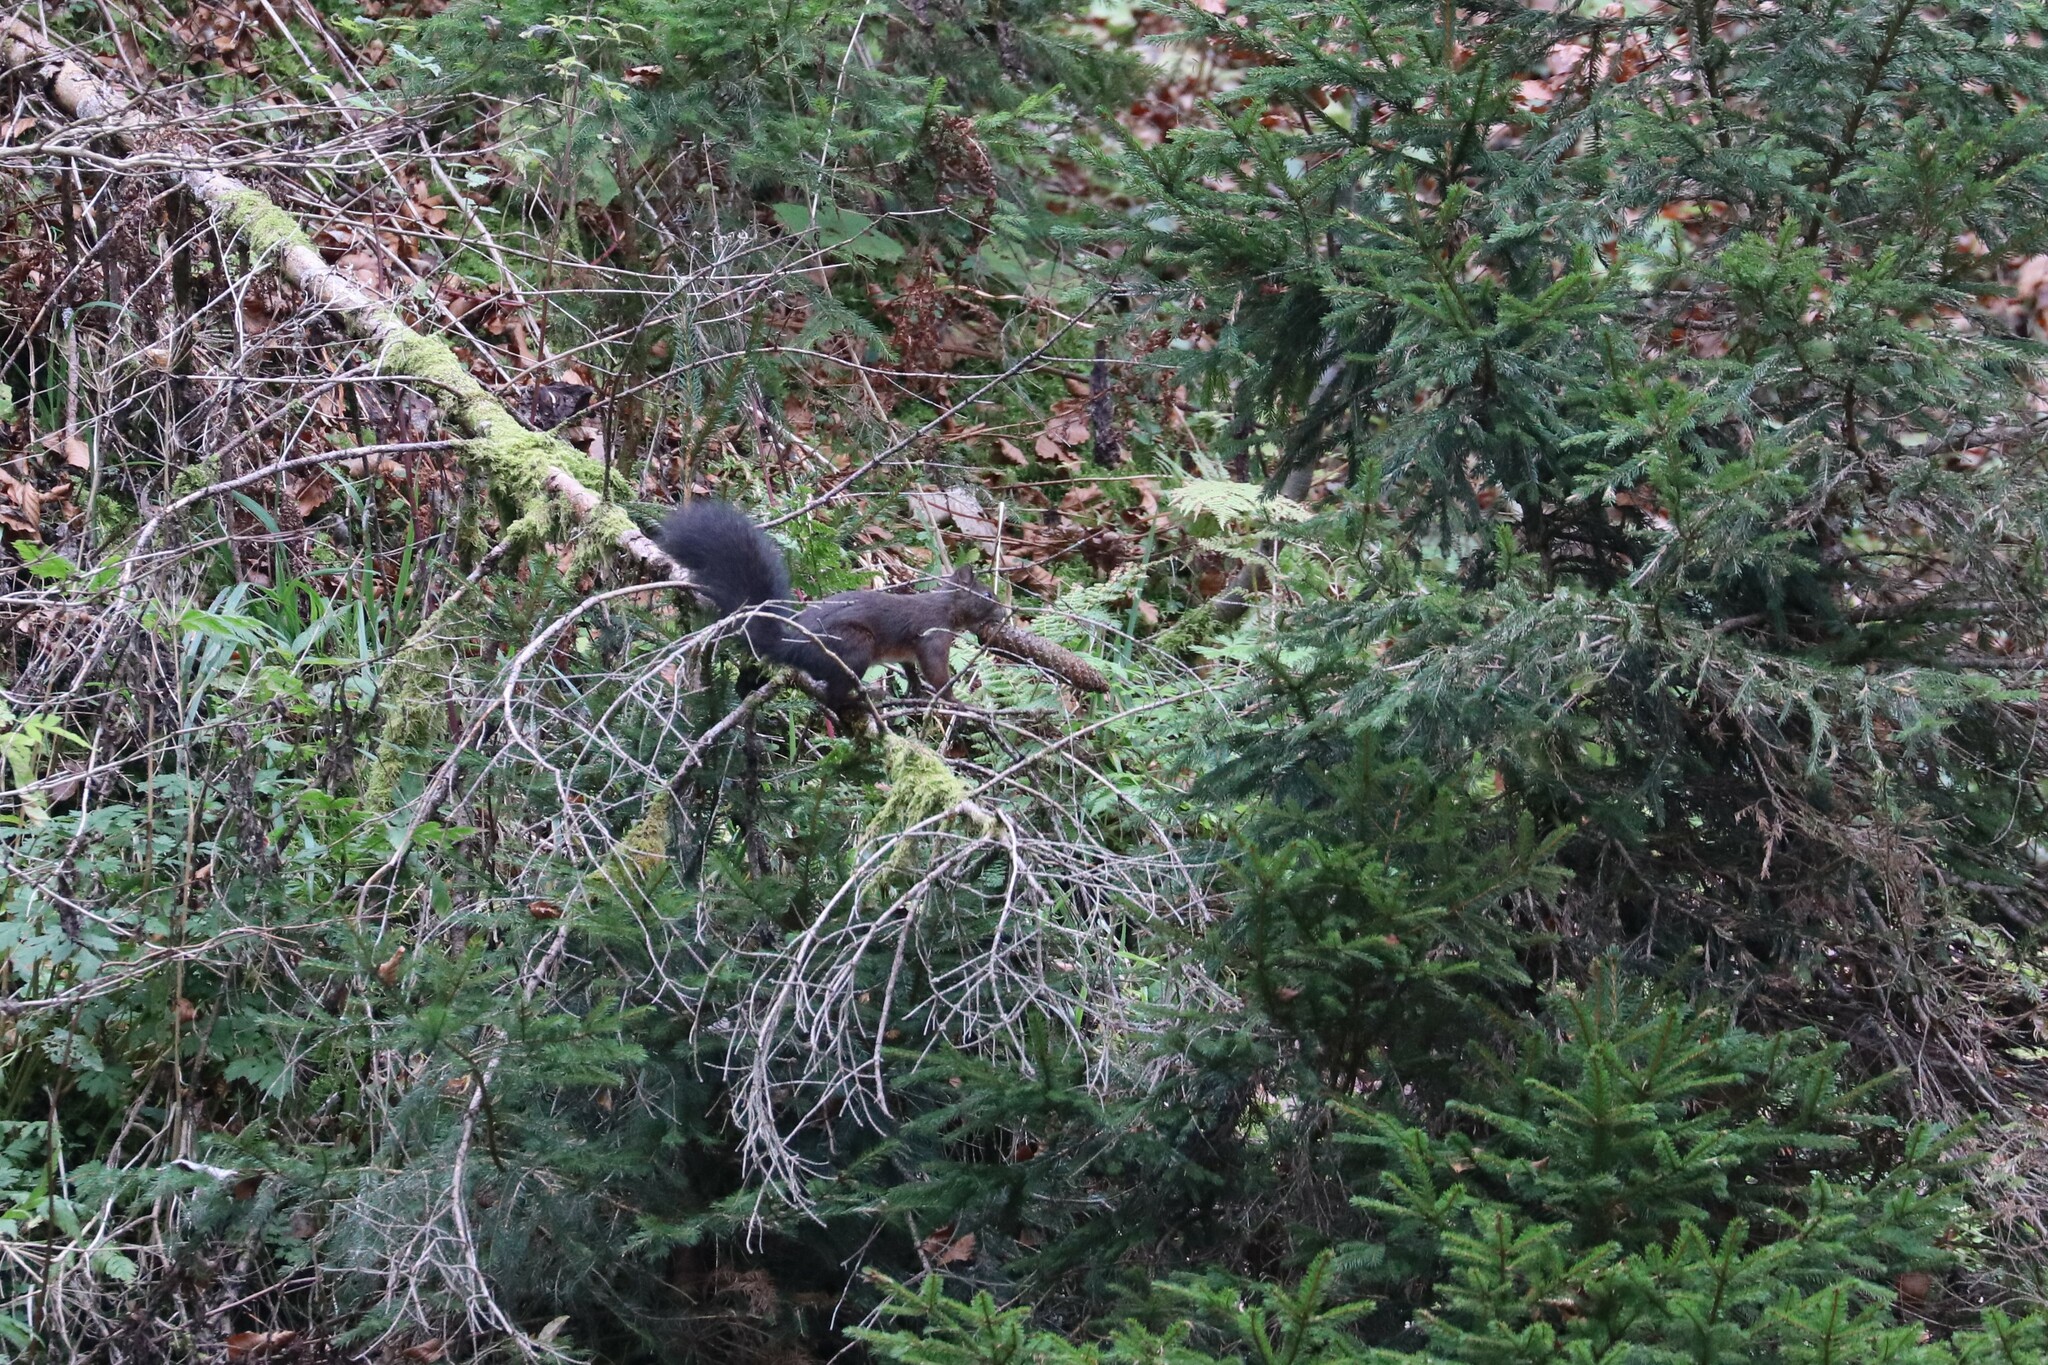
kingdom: Animalia
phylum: Chordata
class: Mammalia
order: Rodentia
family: Sciuridae
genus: Sciurus
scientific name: Sciurus vulgaris
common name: Eurasian red squirrel
